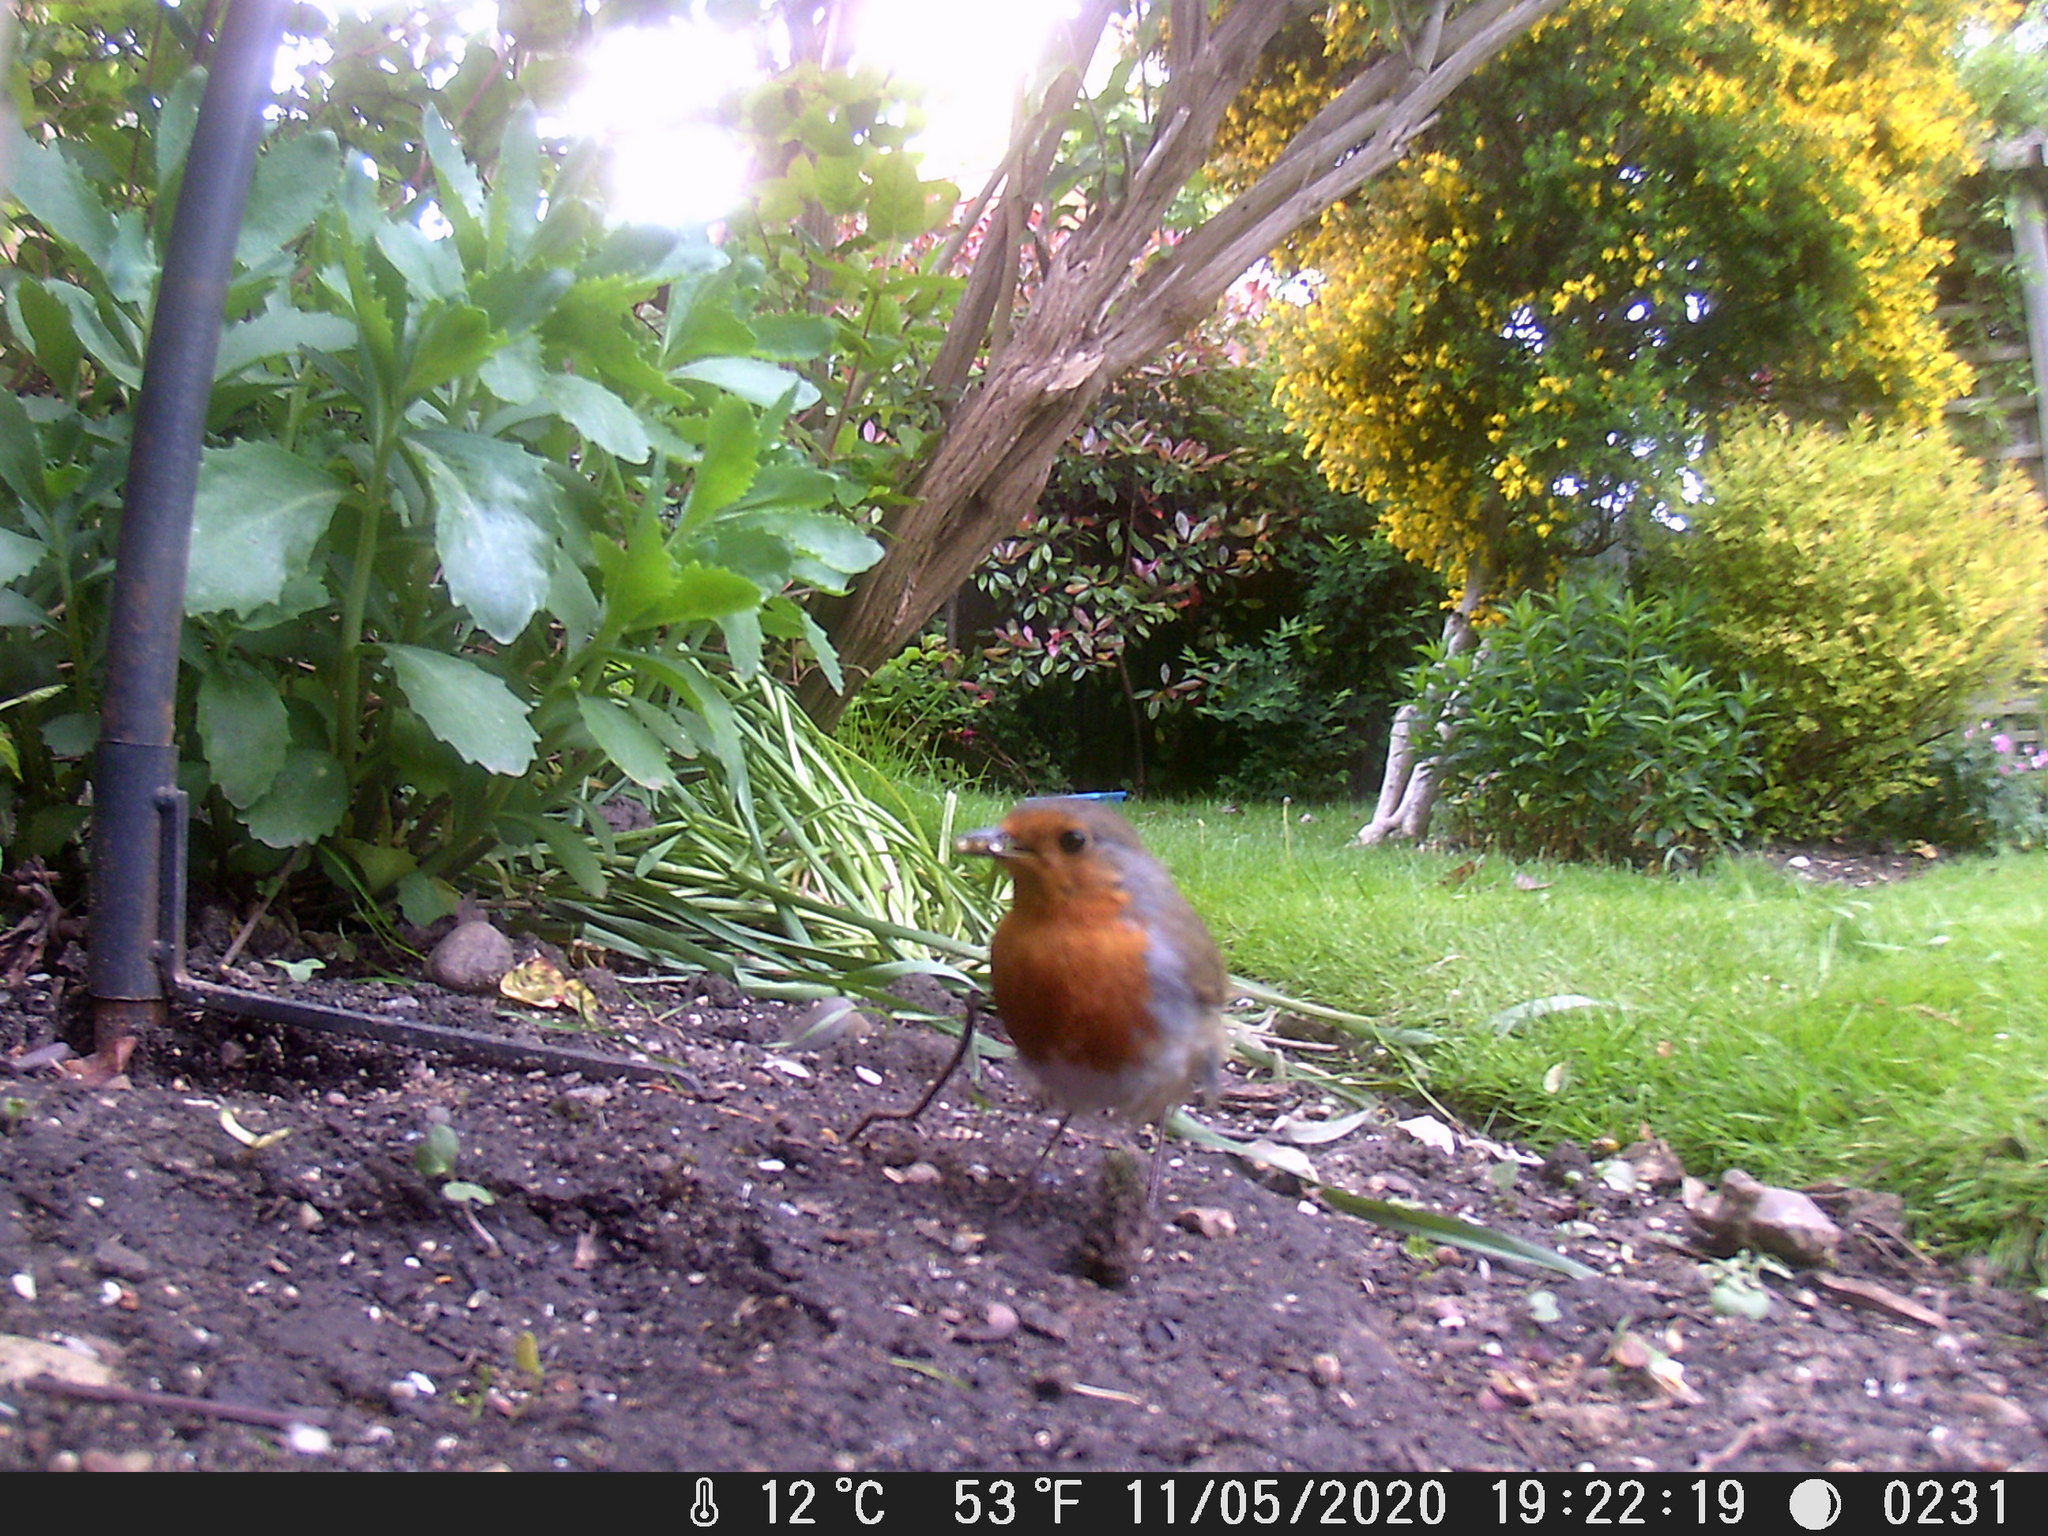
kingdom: Animalia
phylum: Chordata
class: Aves
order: Passeriformes
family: Muscicapidae
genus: Erithacus
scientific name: Erithacus rubecula
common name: European robin
